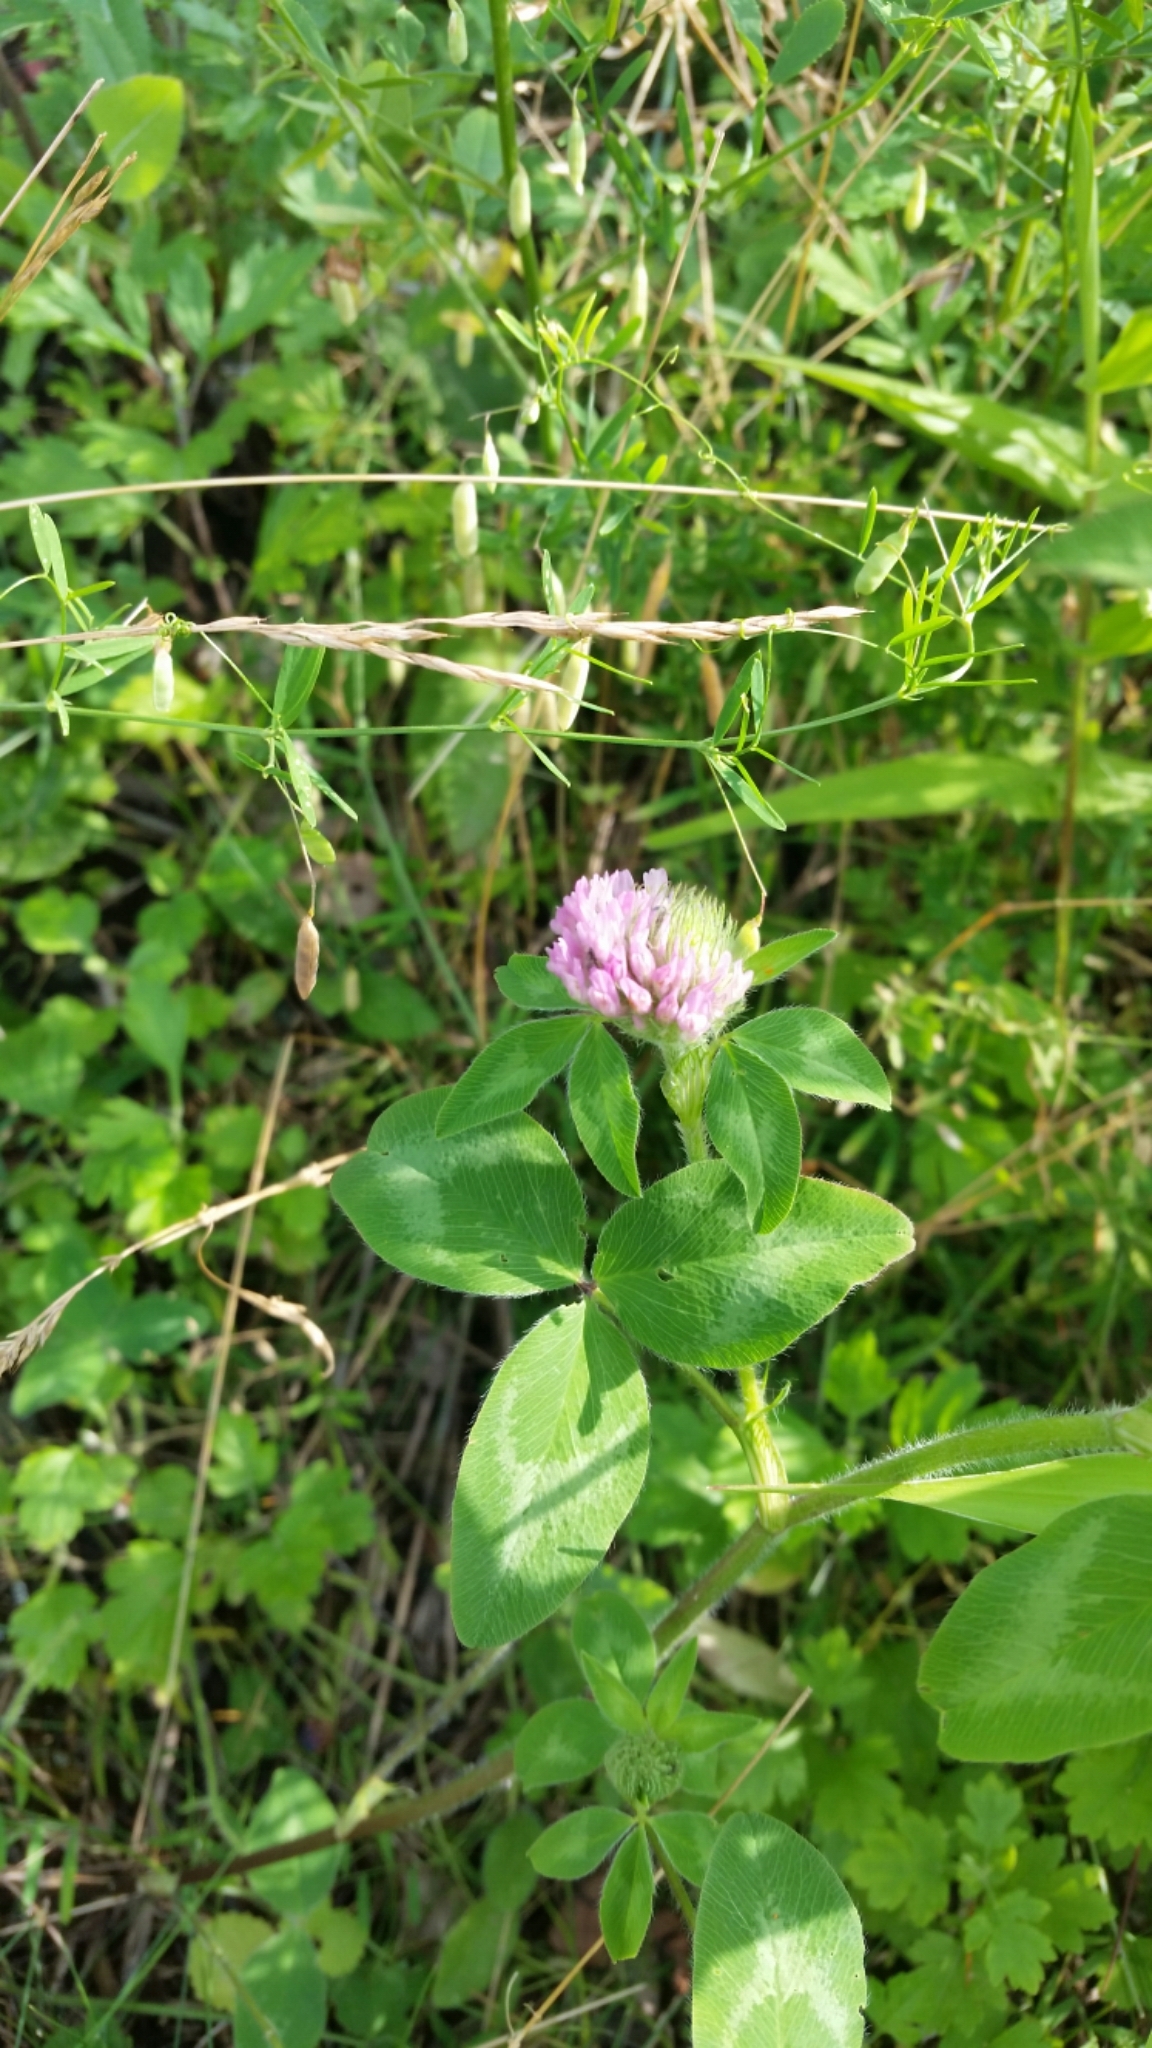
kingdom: Plantae
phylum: Tracheophyta
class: Magnoliopsida
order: Fabales
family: Fabaceae
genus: Trifolium
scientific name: Trifolium pratense
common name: Red clover
